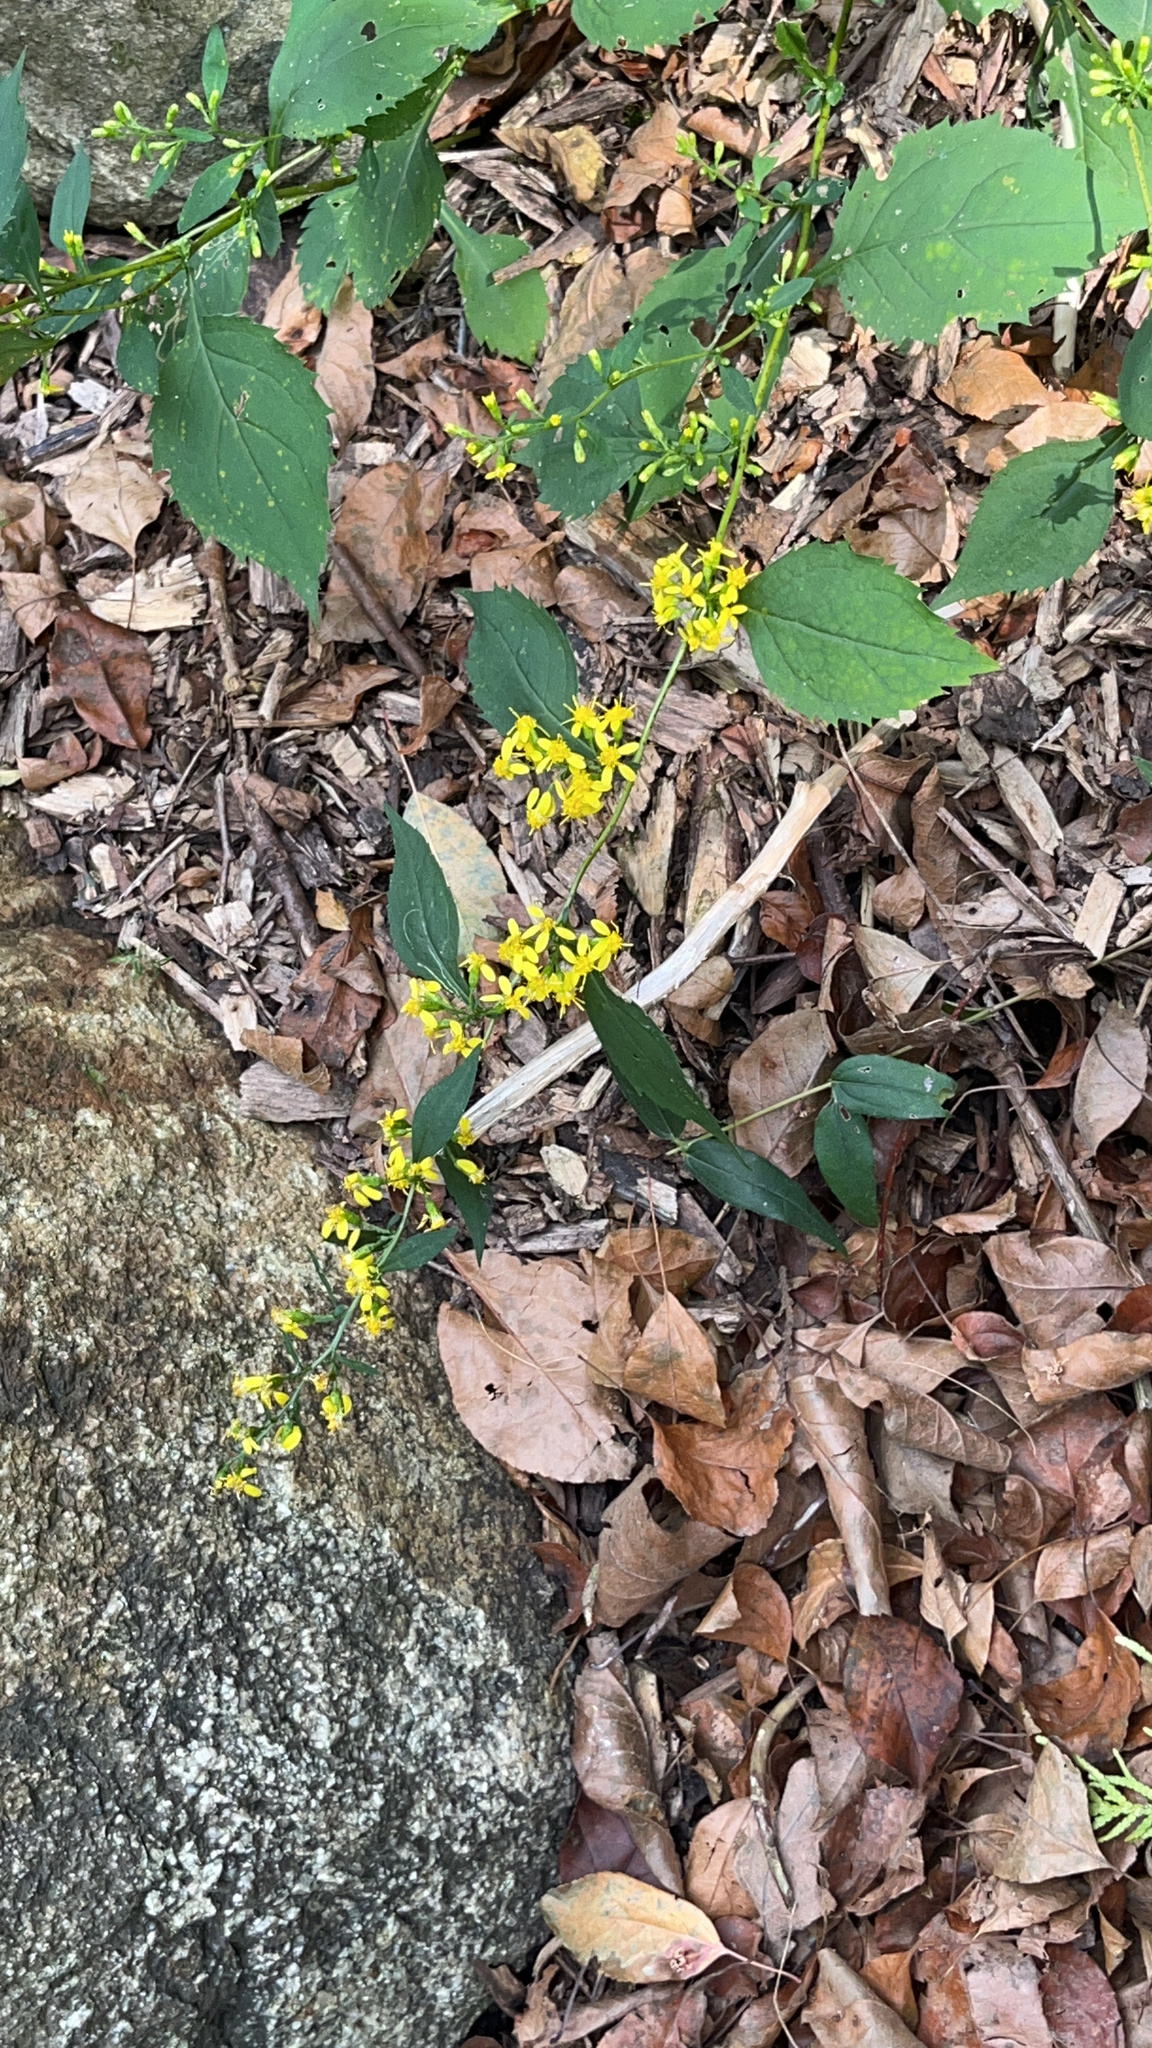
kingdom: Plantae
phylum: Tracheophyta
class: Magnoliopsida
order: Asterales
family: Asteraceae
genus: Solidago
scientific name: Solidago flexicaulis
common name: Zig-zag goldenrod
